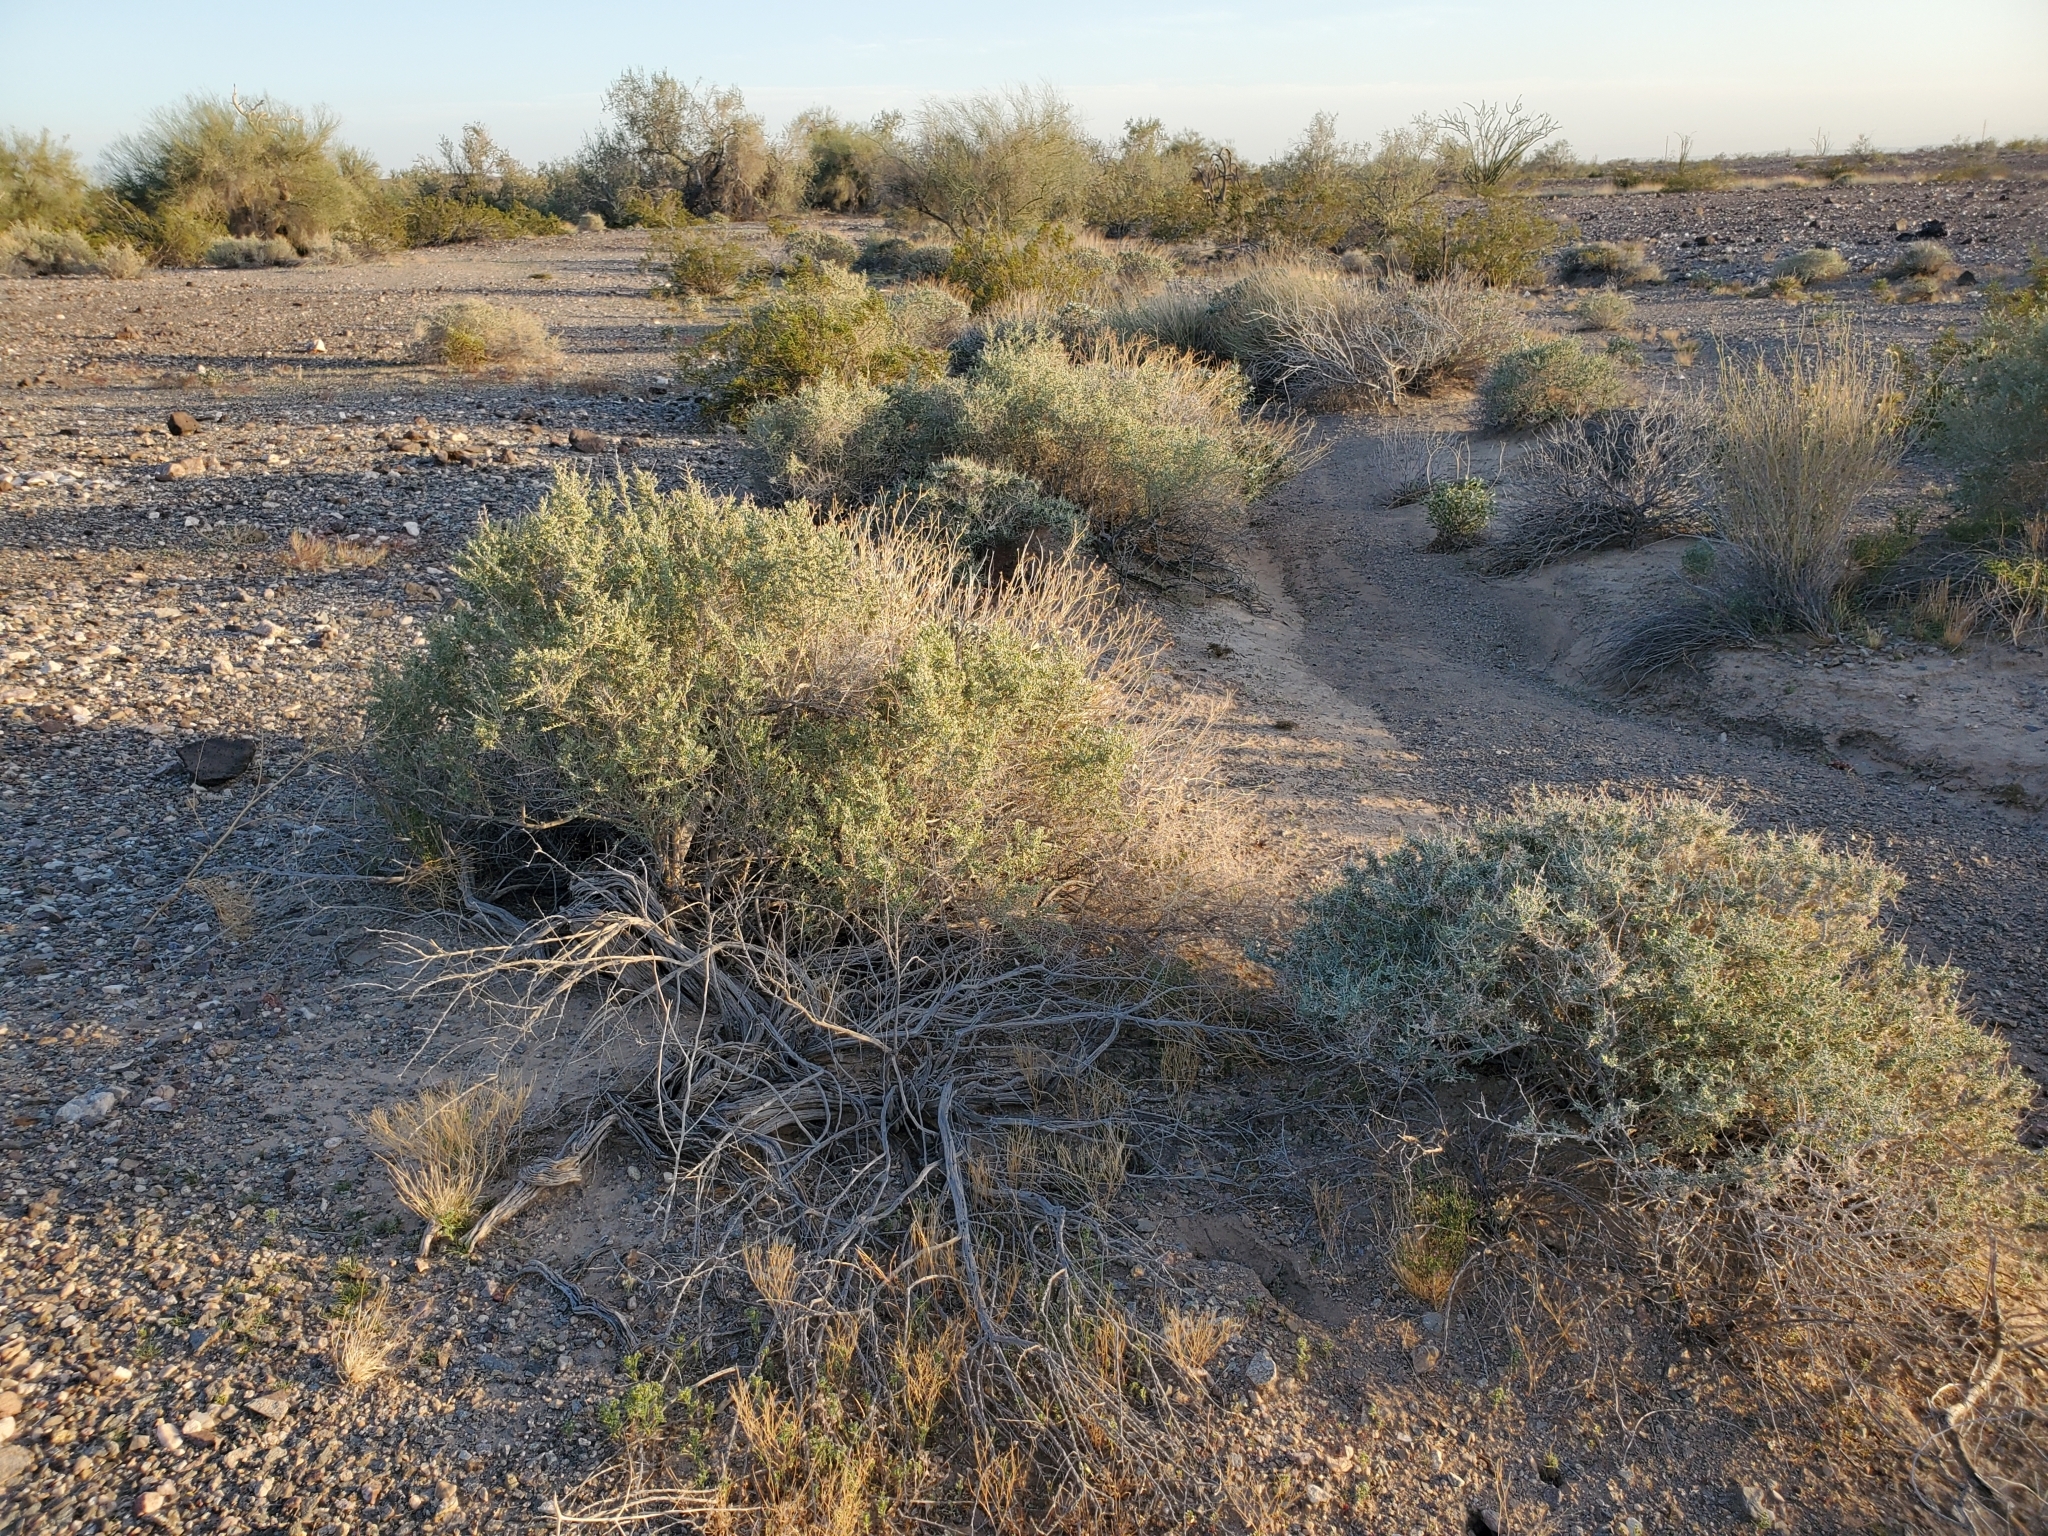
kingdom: Plantae
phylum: Tracheophyta
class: Magnoliopsida
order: Caryophyllales
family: Amaranthaceae
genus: Atriplex
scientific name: Atriplex canescens
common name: Four-wing saltbush
